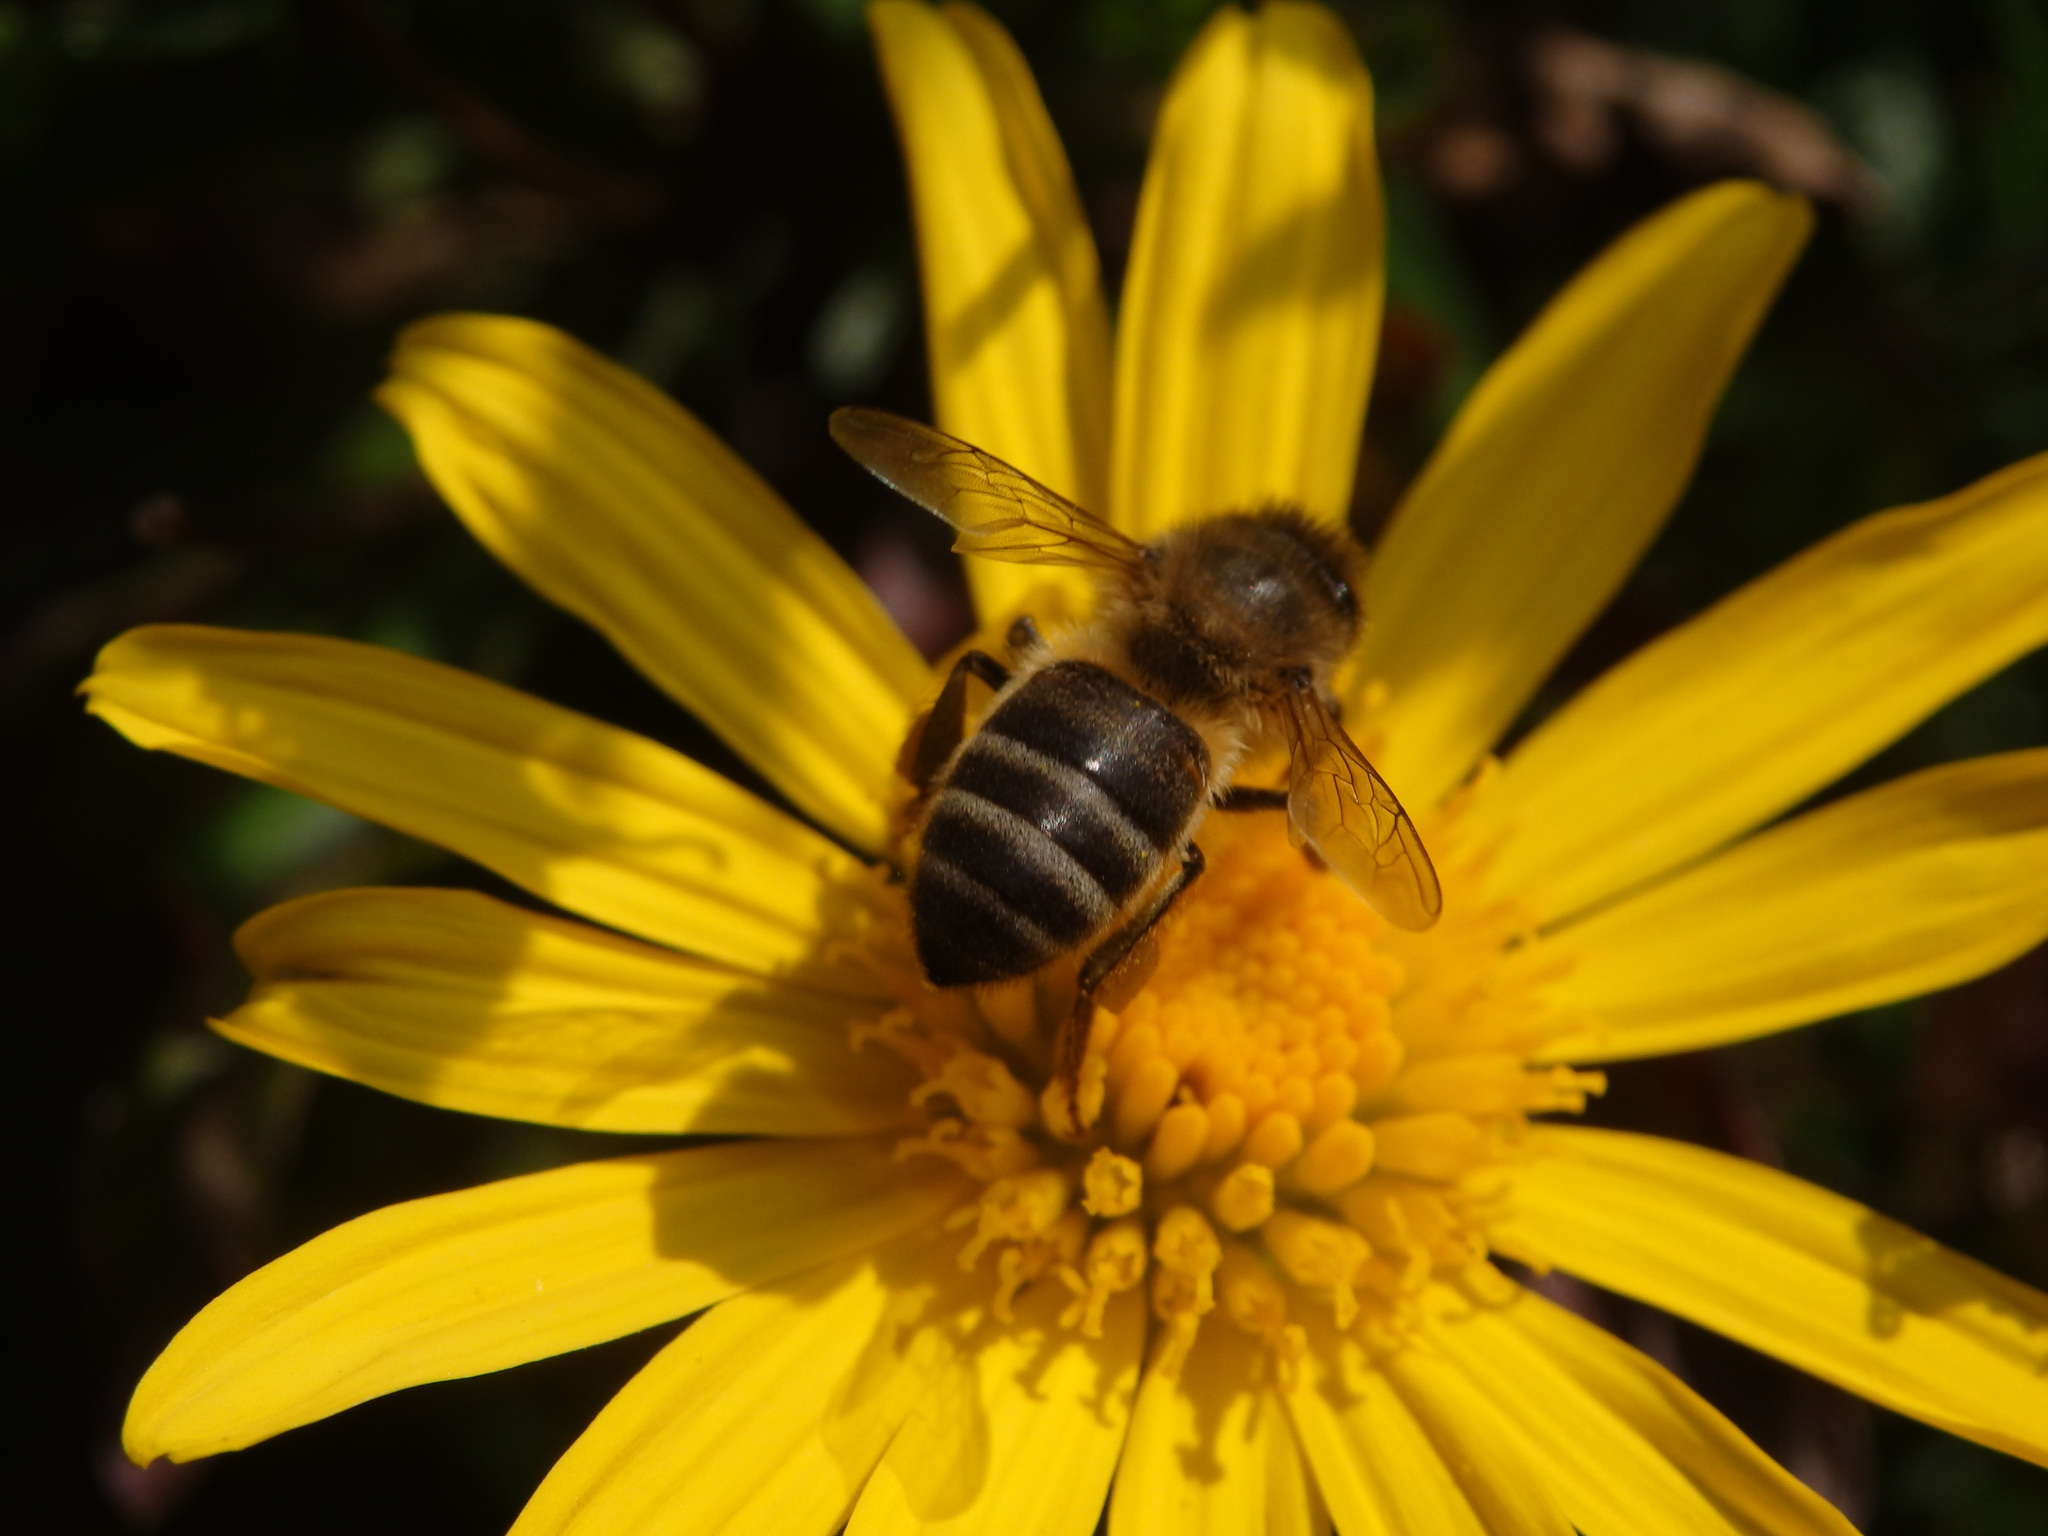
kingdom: Animalia
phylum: Arthropoda
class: Insecta
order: Hymenoptera
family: Apidae
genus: Apis
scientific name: Apis mellifera
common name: Honey bee
